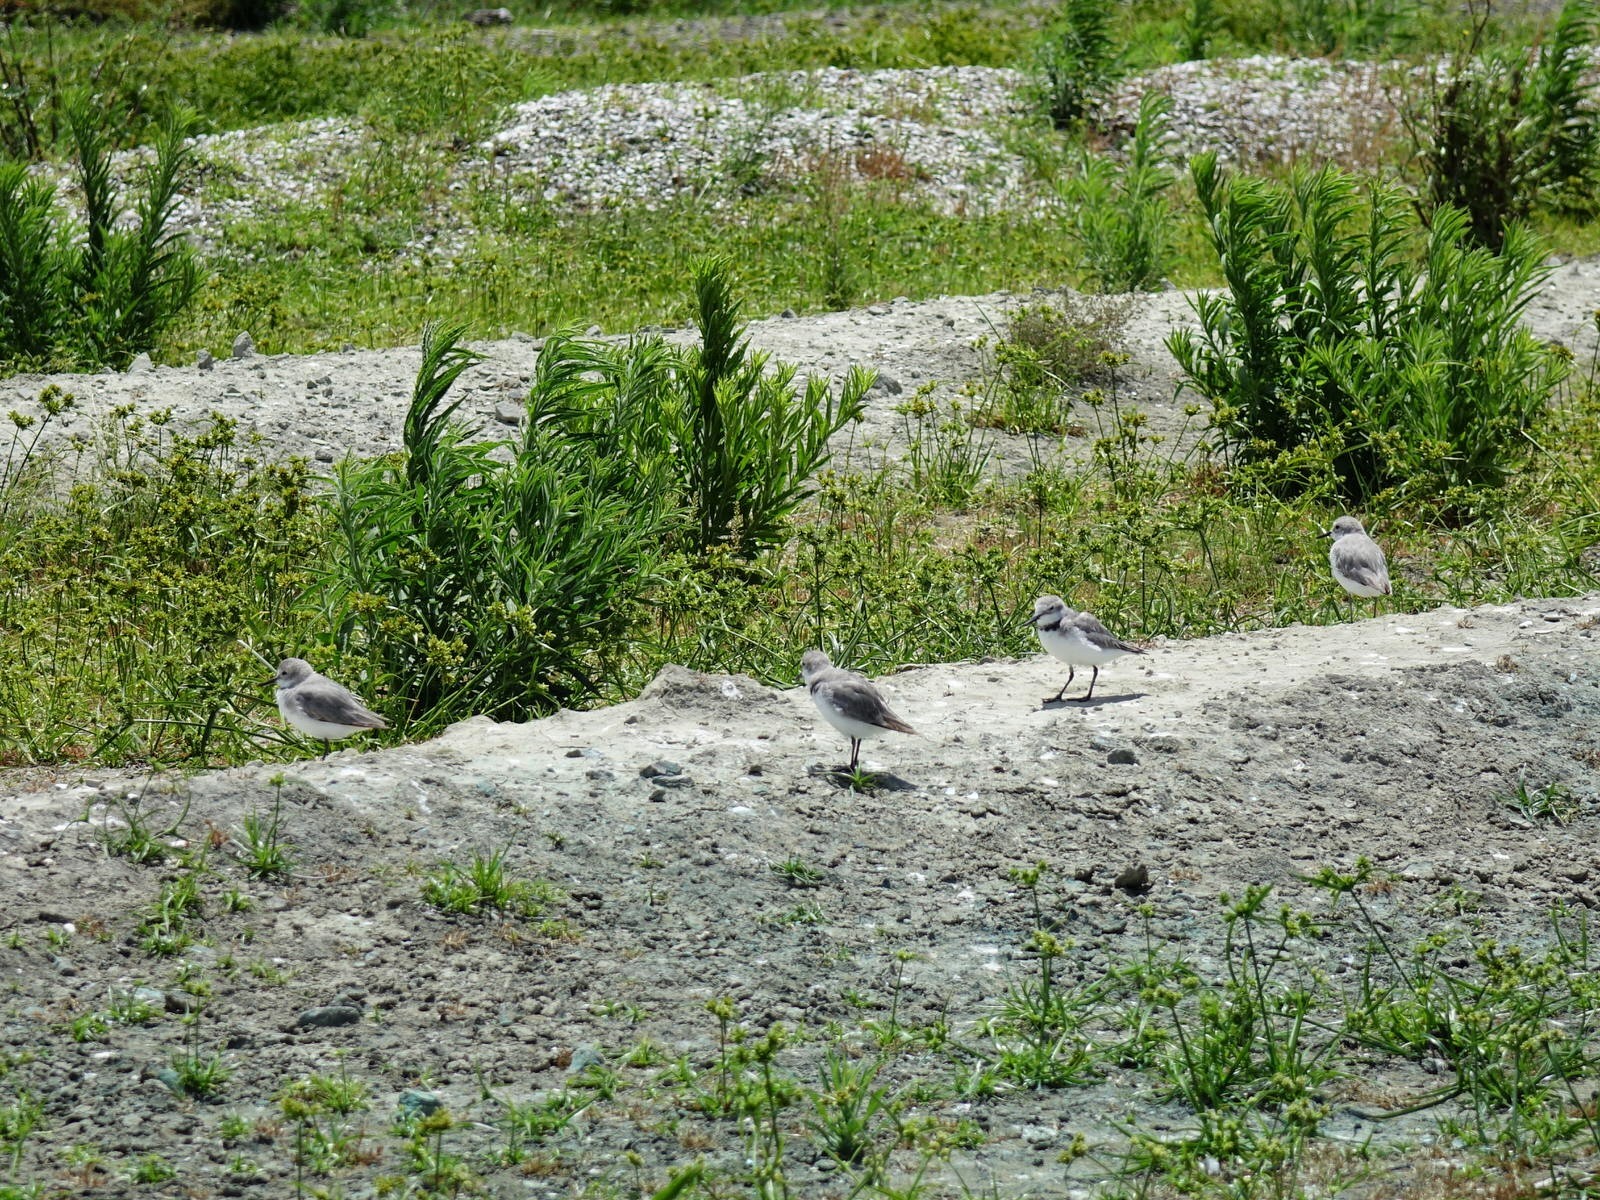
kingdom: Animalia
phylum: Chordata
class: Aves
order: Charadriiformes
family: Charadriidae
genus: Anarhynchus
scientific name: Anarhynchus frontalis
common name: Wrybill
